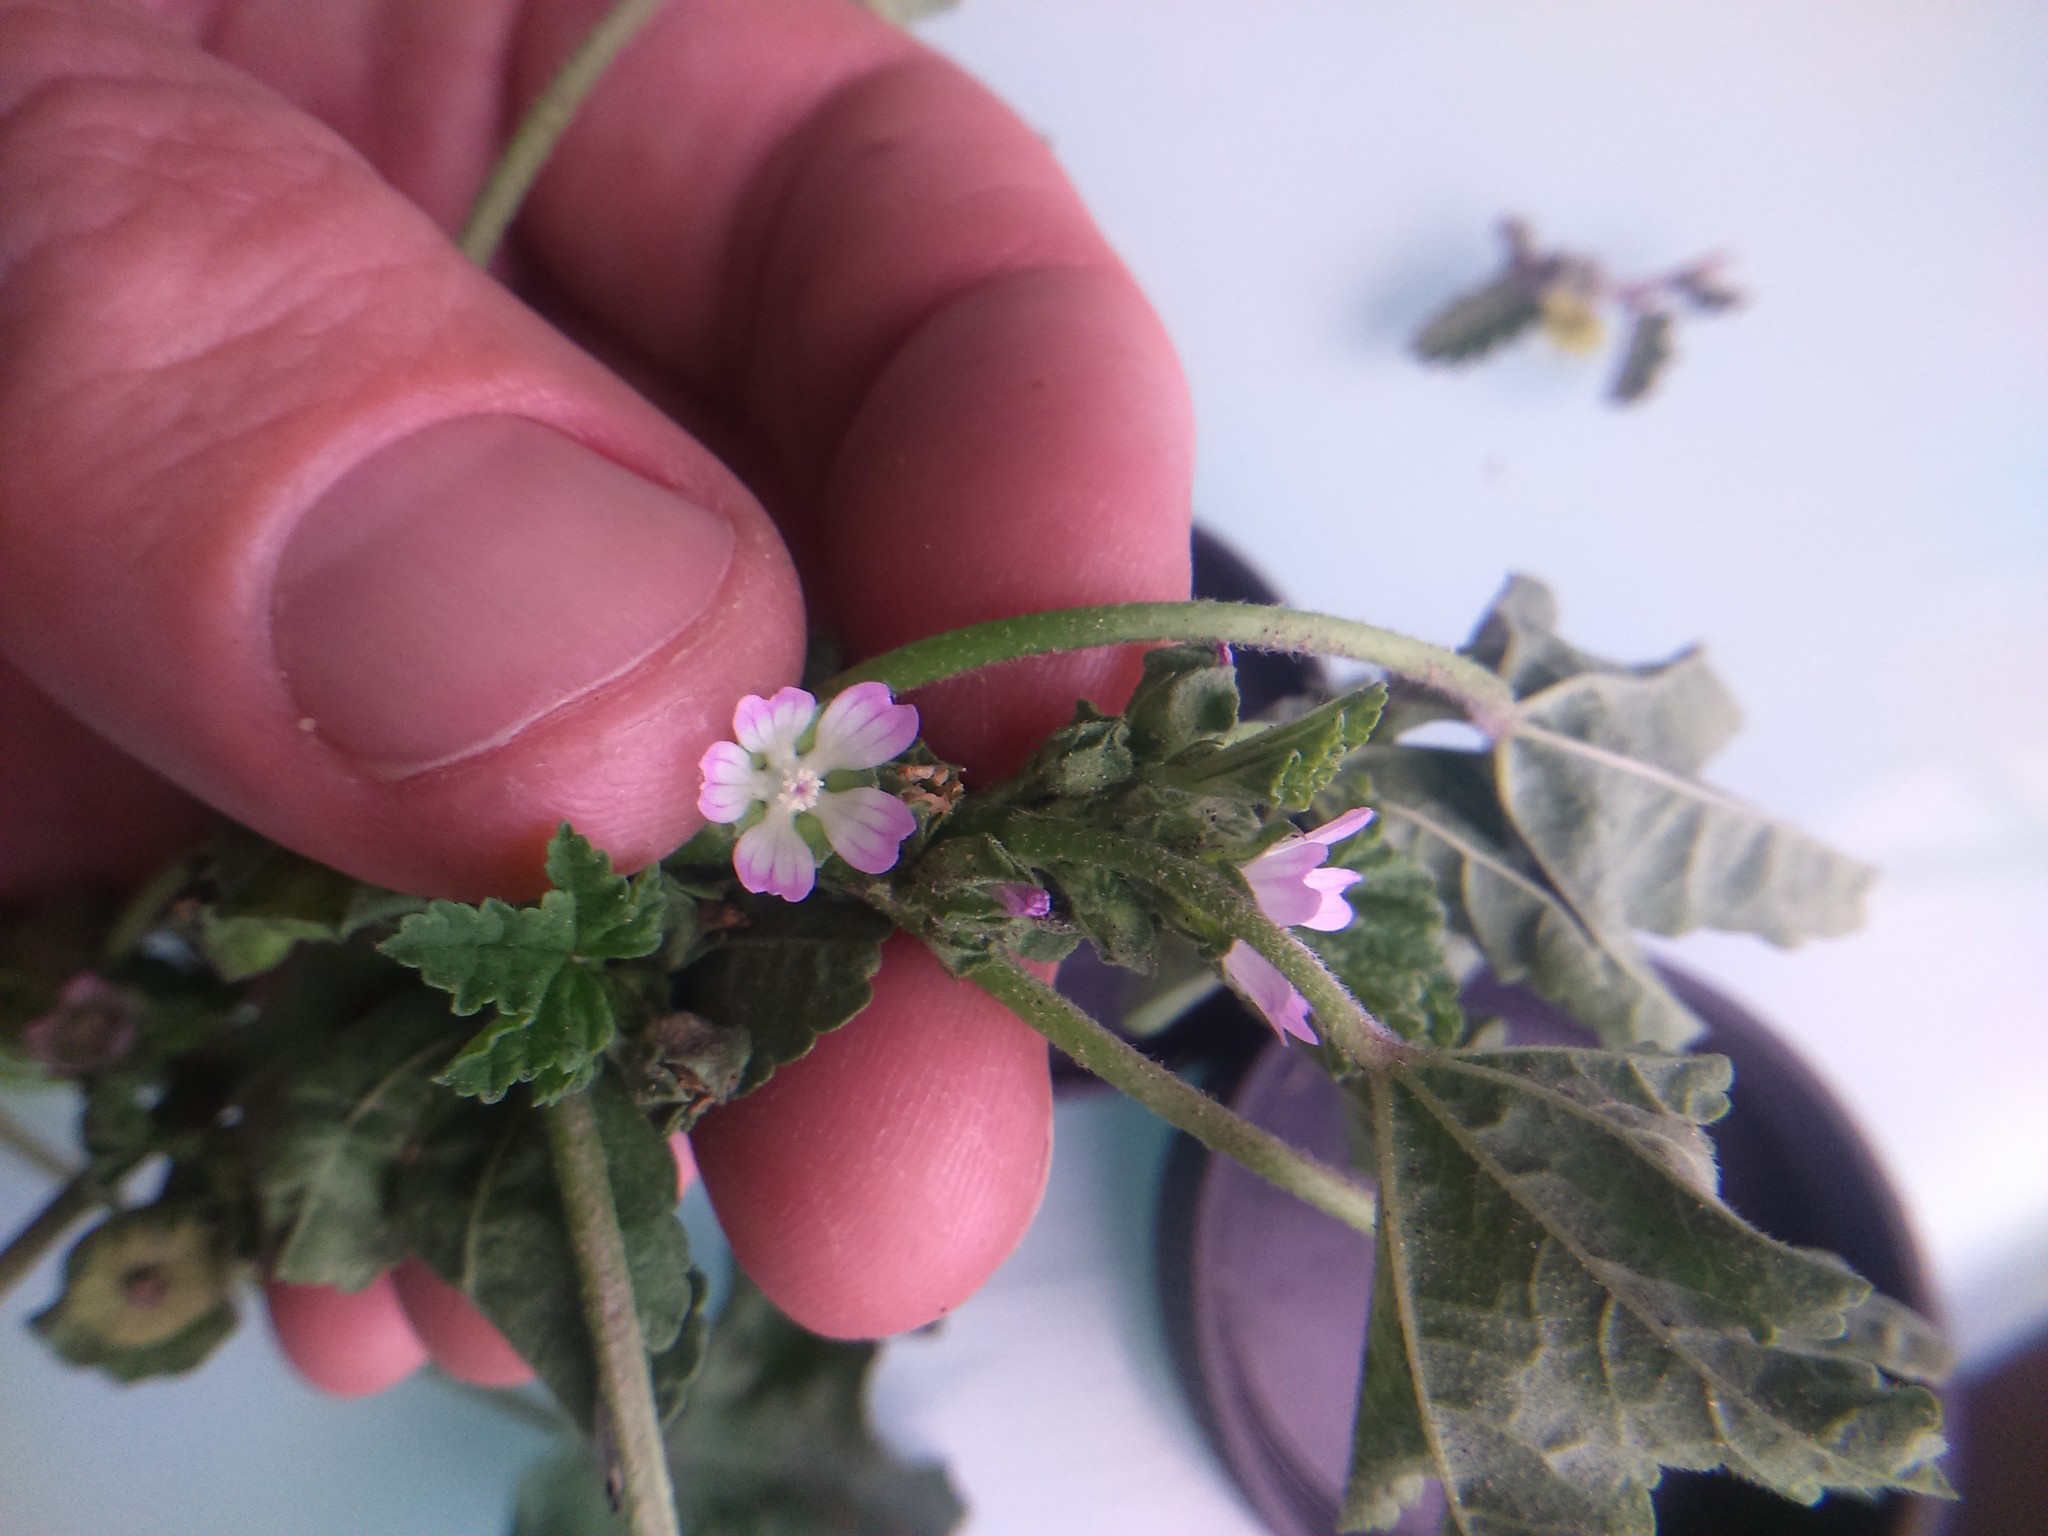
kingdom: Plantae
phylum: Tracheophyta
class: Magnoliopsida
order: Malvales
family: Malvaceae
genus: Malva
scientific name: Malva parviflora
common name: Least mallow
